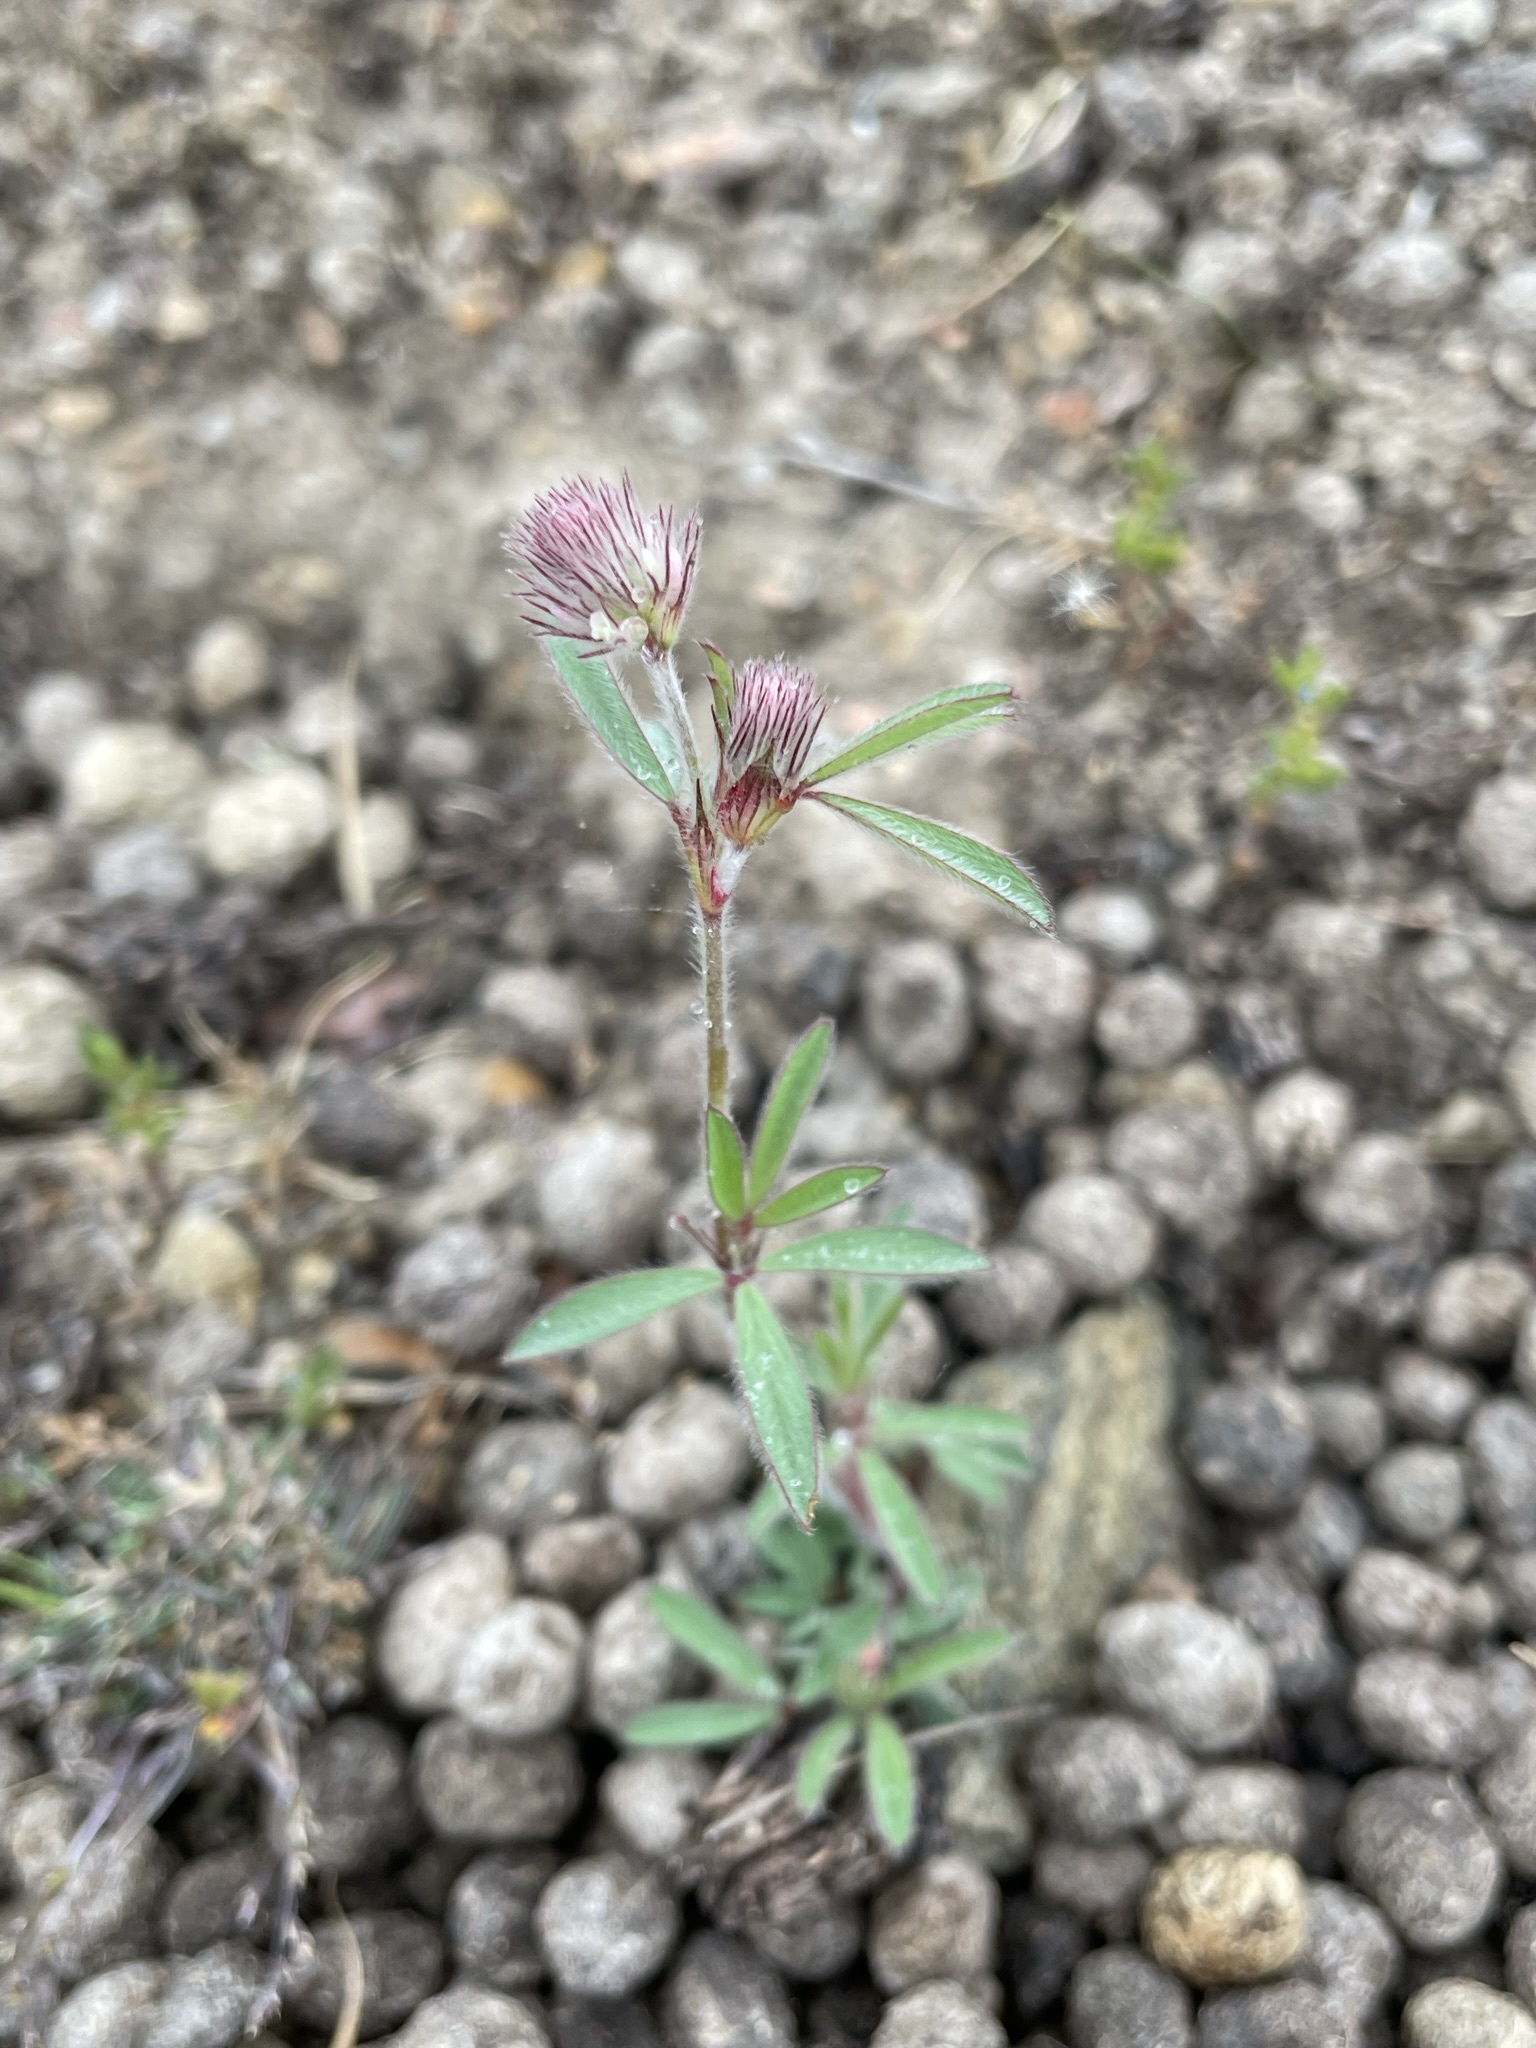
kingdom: Plantae
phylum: Tracheophyta
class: Magnoliopsida
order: Fabales
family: Fabaceae
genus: Trifolium
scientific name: Trifolium arvense
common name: Hare's-foot clover
